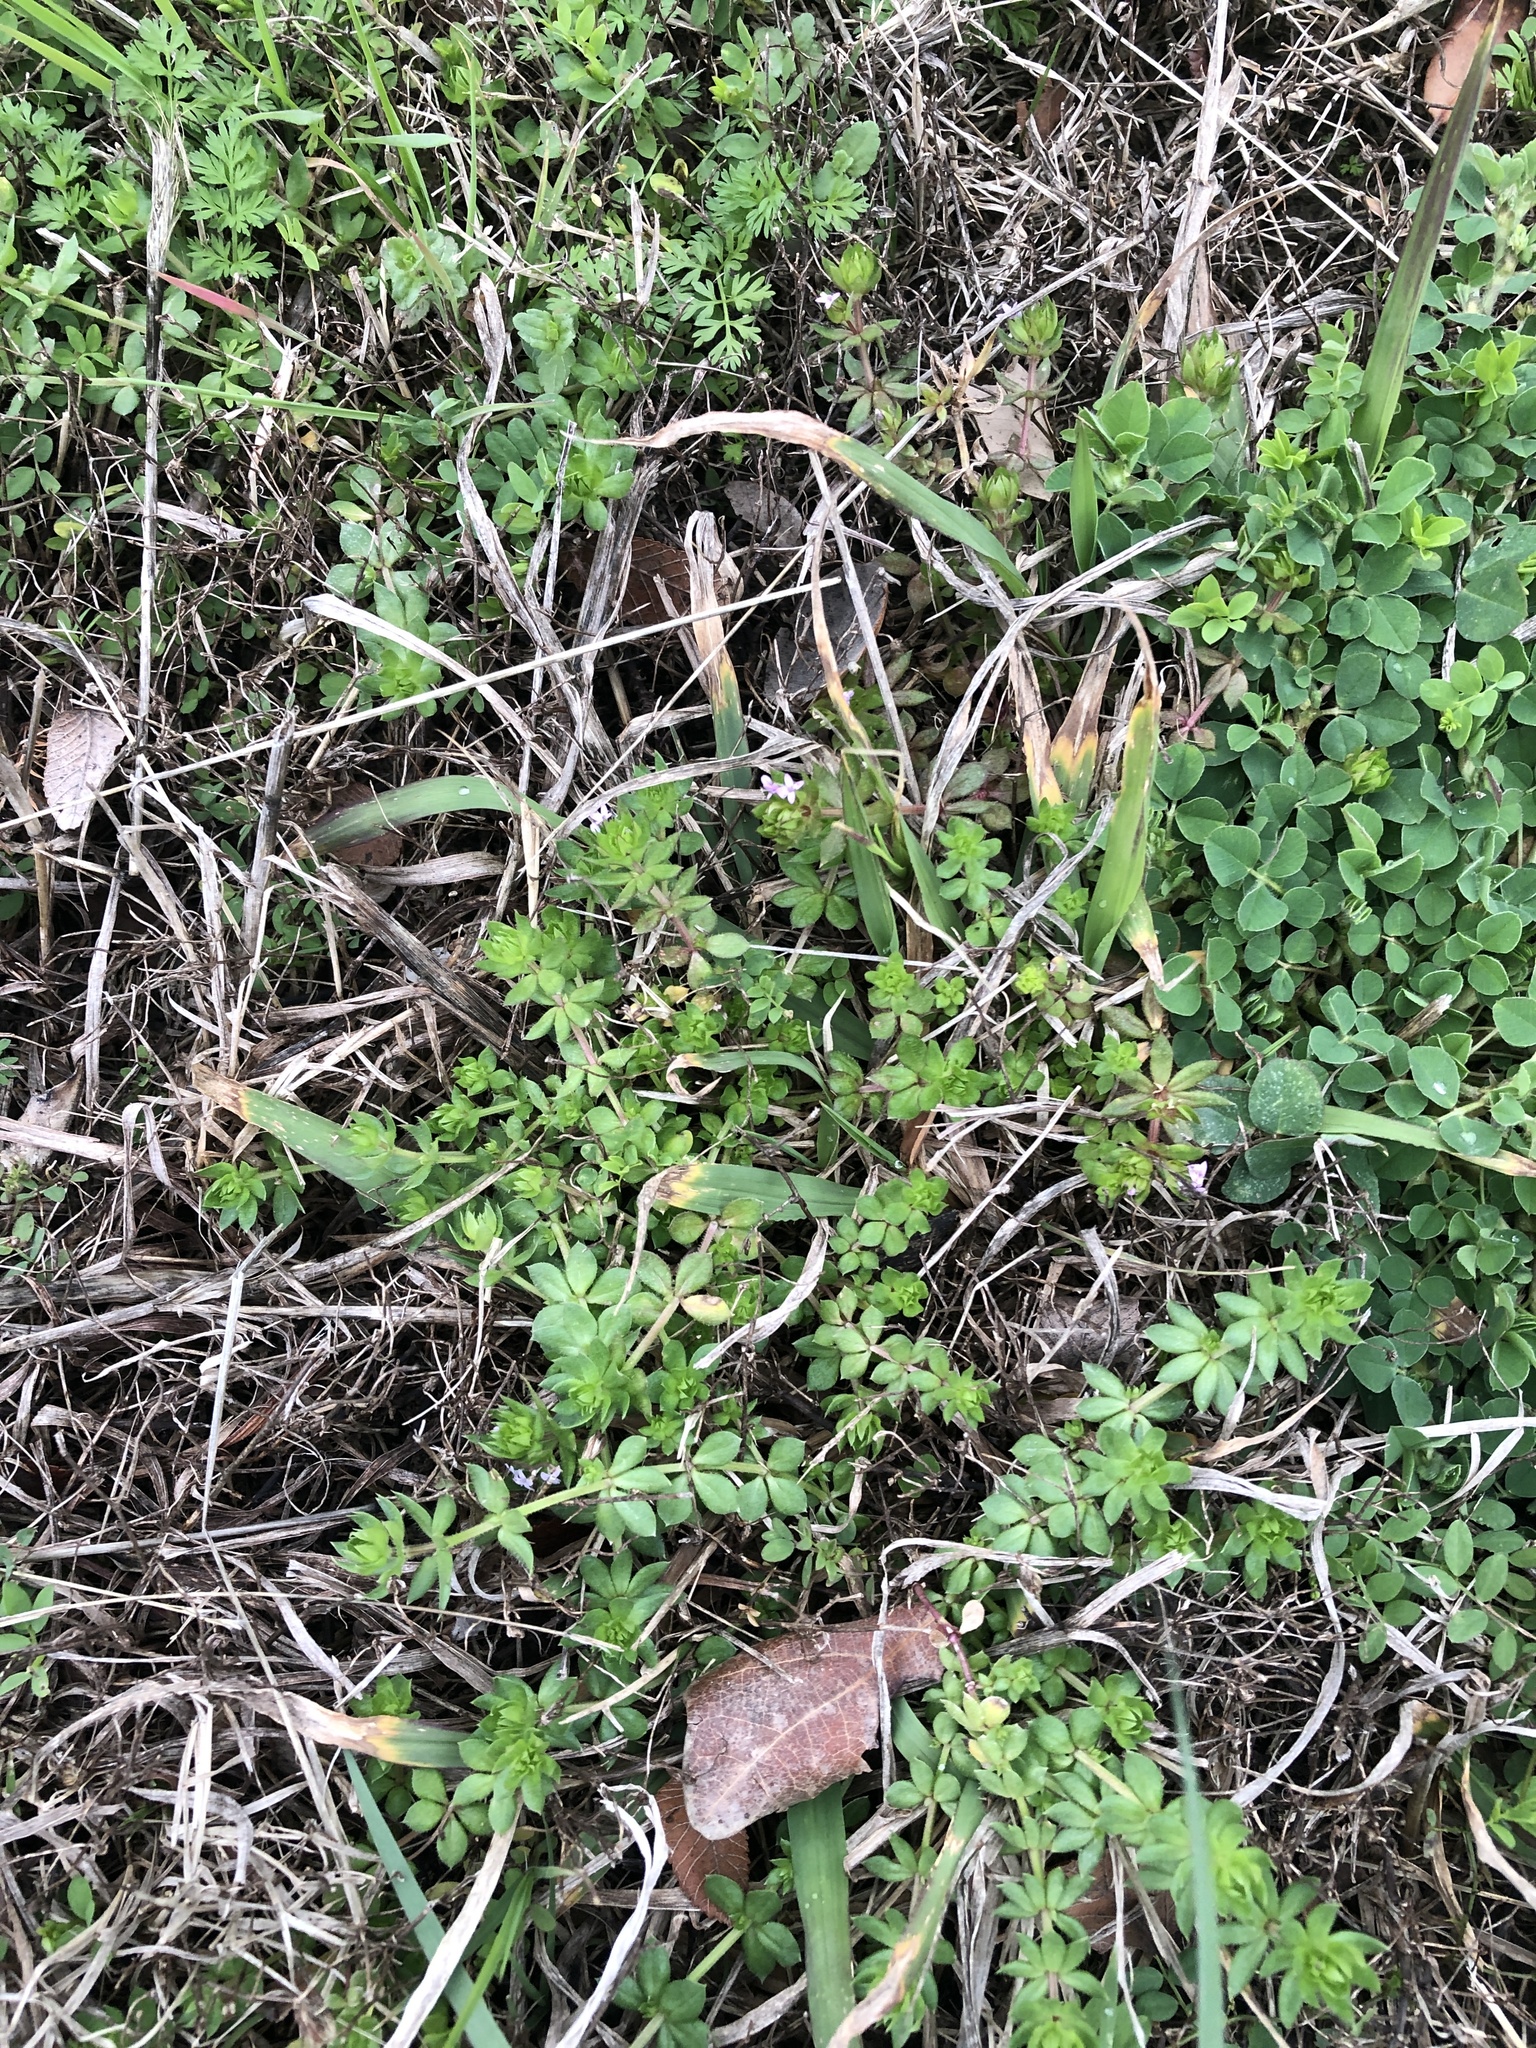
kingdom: Plantae
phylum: Tracheophyta
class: Magnoliopsida
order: Gentianales
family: Rubiaceae
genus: Sherardia
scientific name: Sherardia arvensis
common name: Field madder
